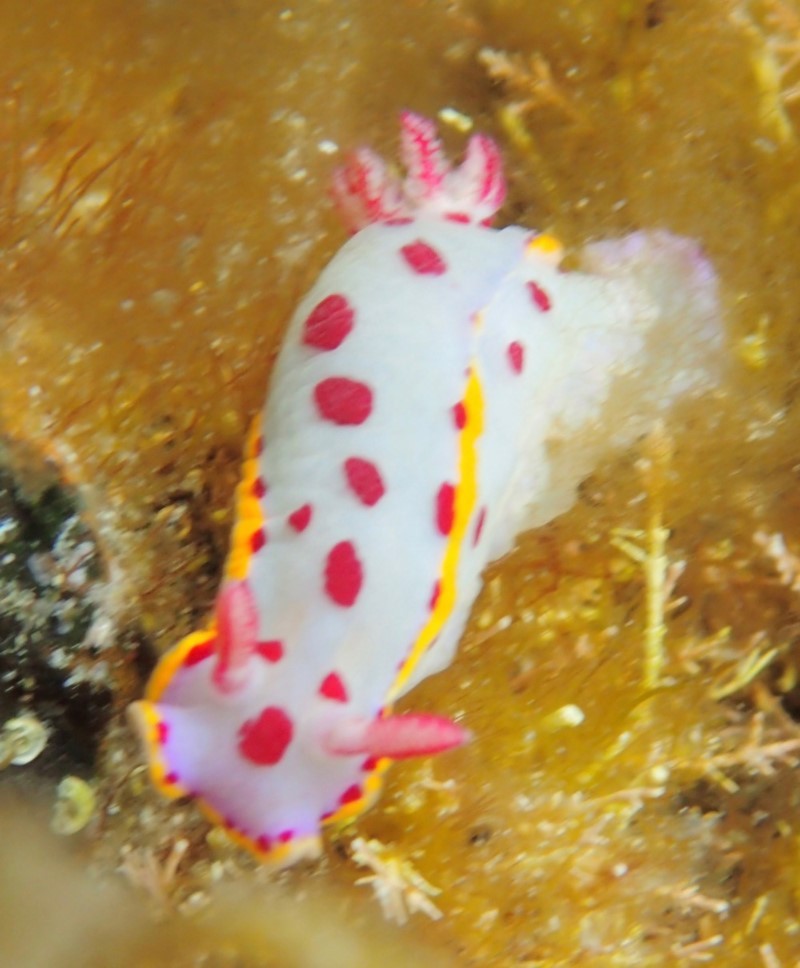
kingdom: Animalia
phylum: Mollusca
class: Gastropoda
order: Nudibranchia
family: Chromodorididae
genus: Hypselodoris
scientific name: Hypselodoris bennetti
